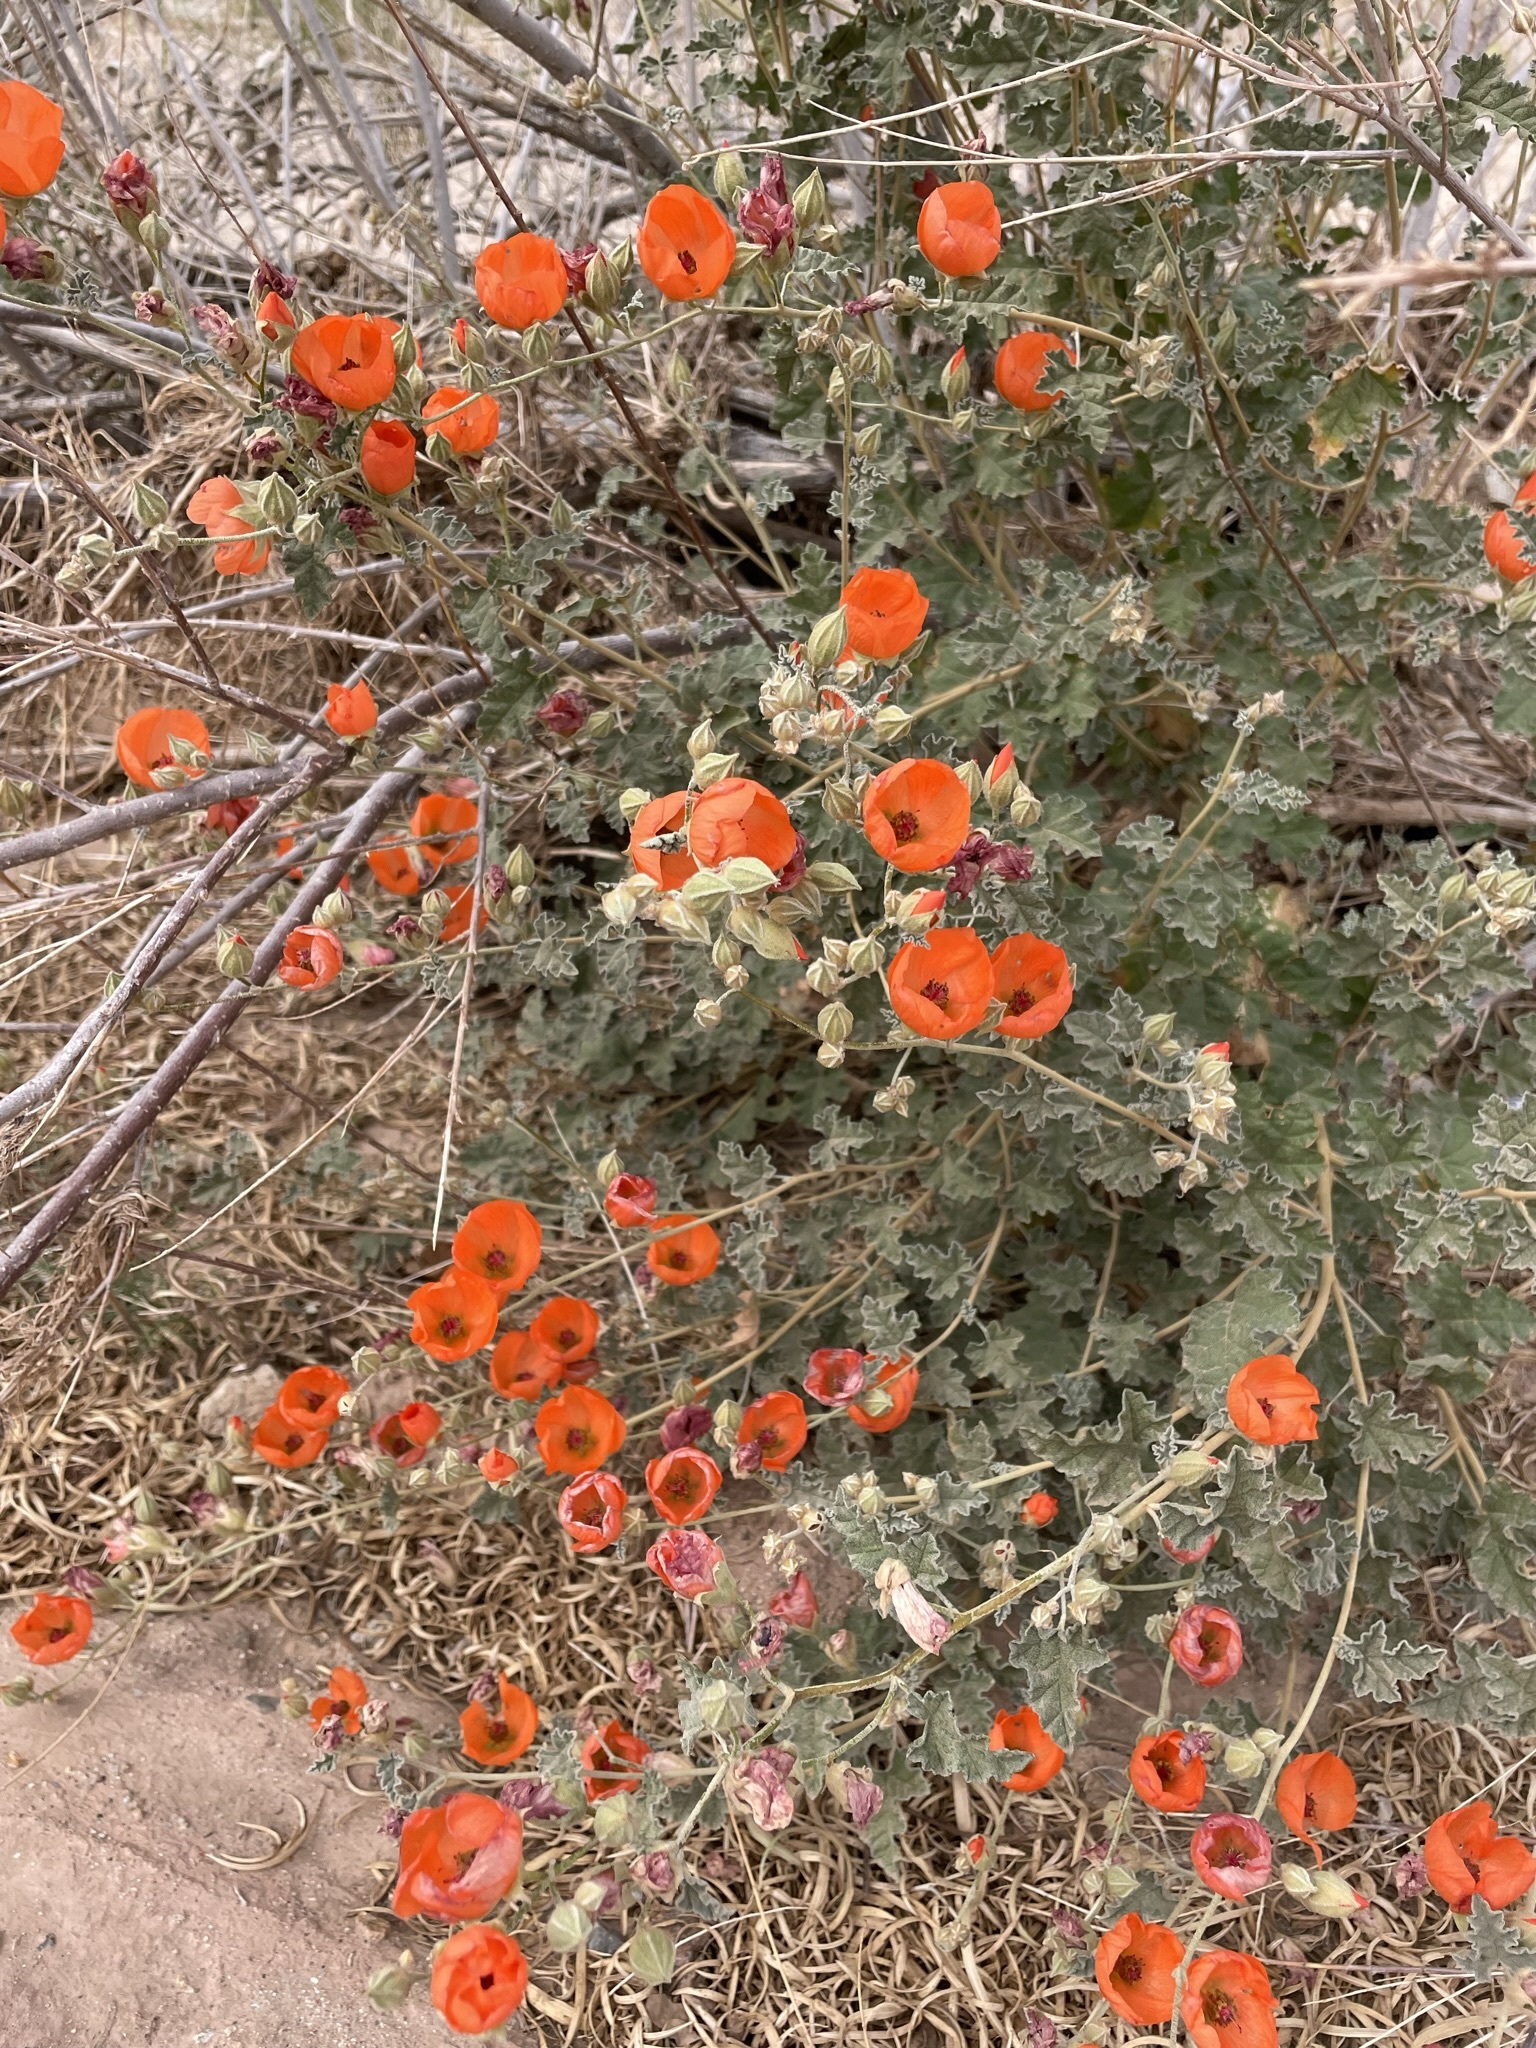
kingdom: Plantae
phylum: Tracheophyta
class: Magnoliopsida
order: Malvales
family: Malvaceae
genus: Sphaeralcea
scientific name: Sphaeralcea ambigua
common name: Apricot globe-mallow
